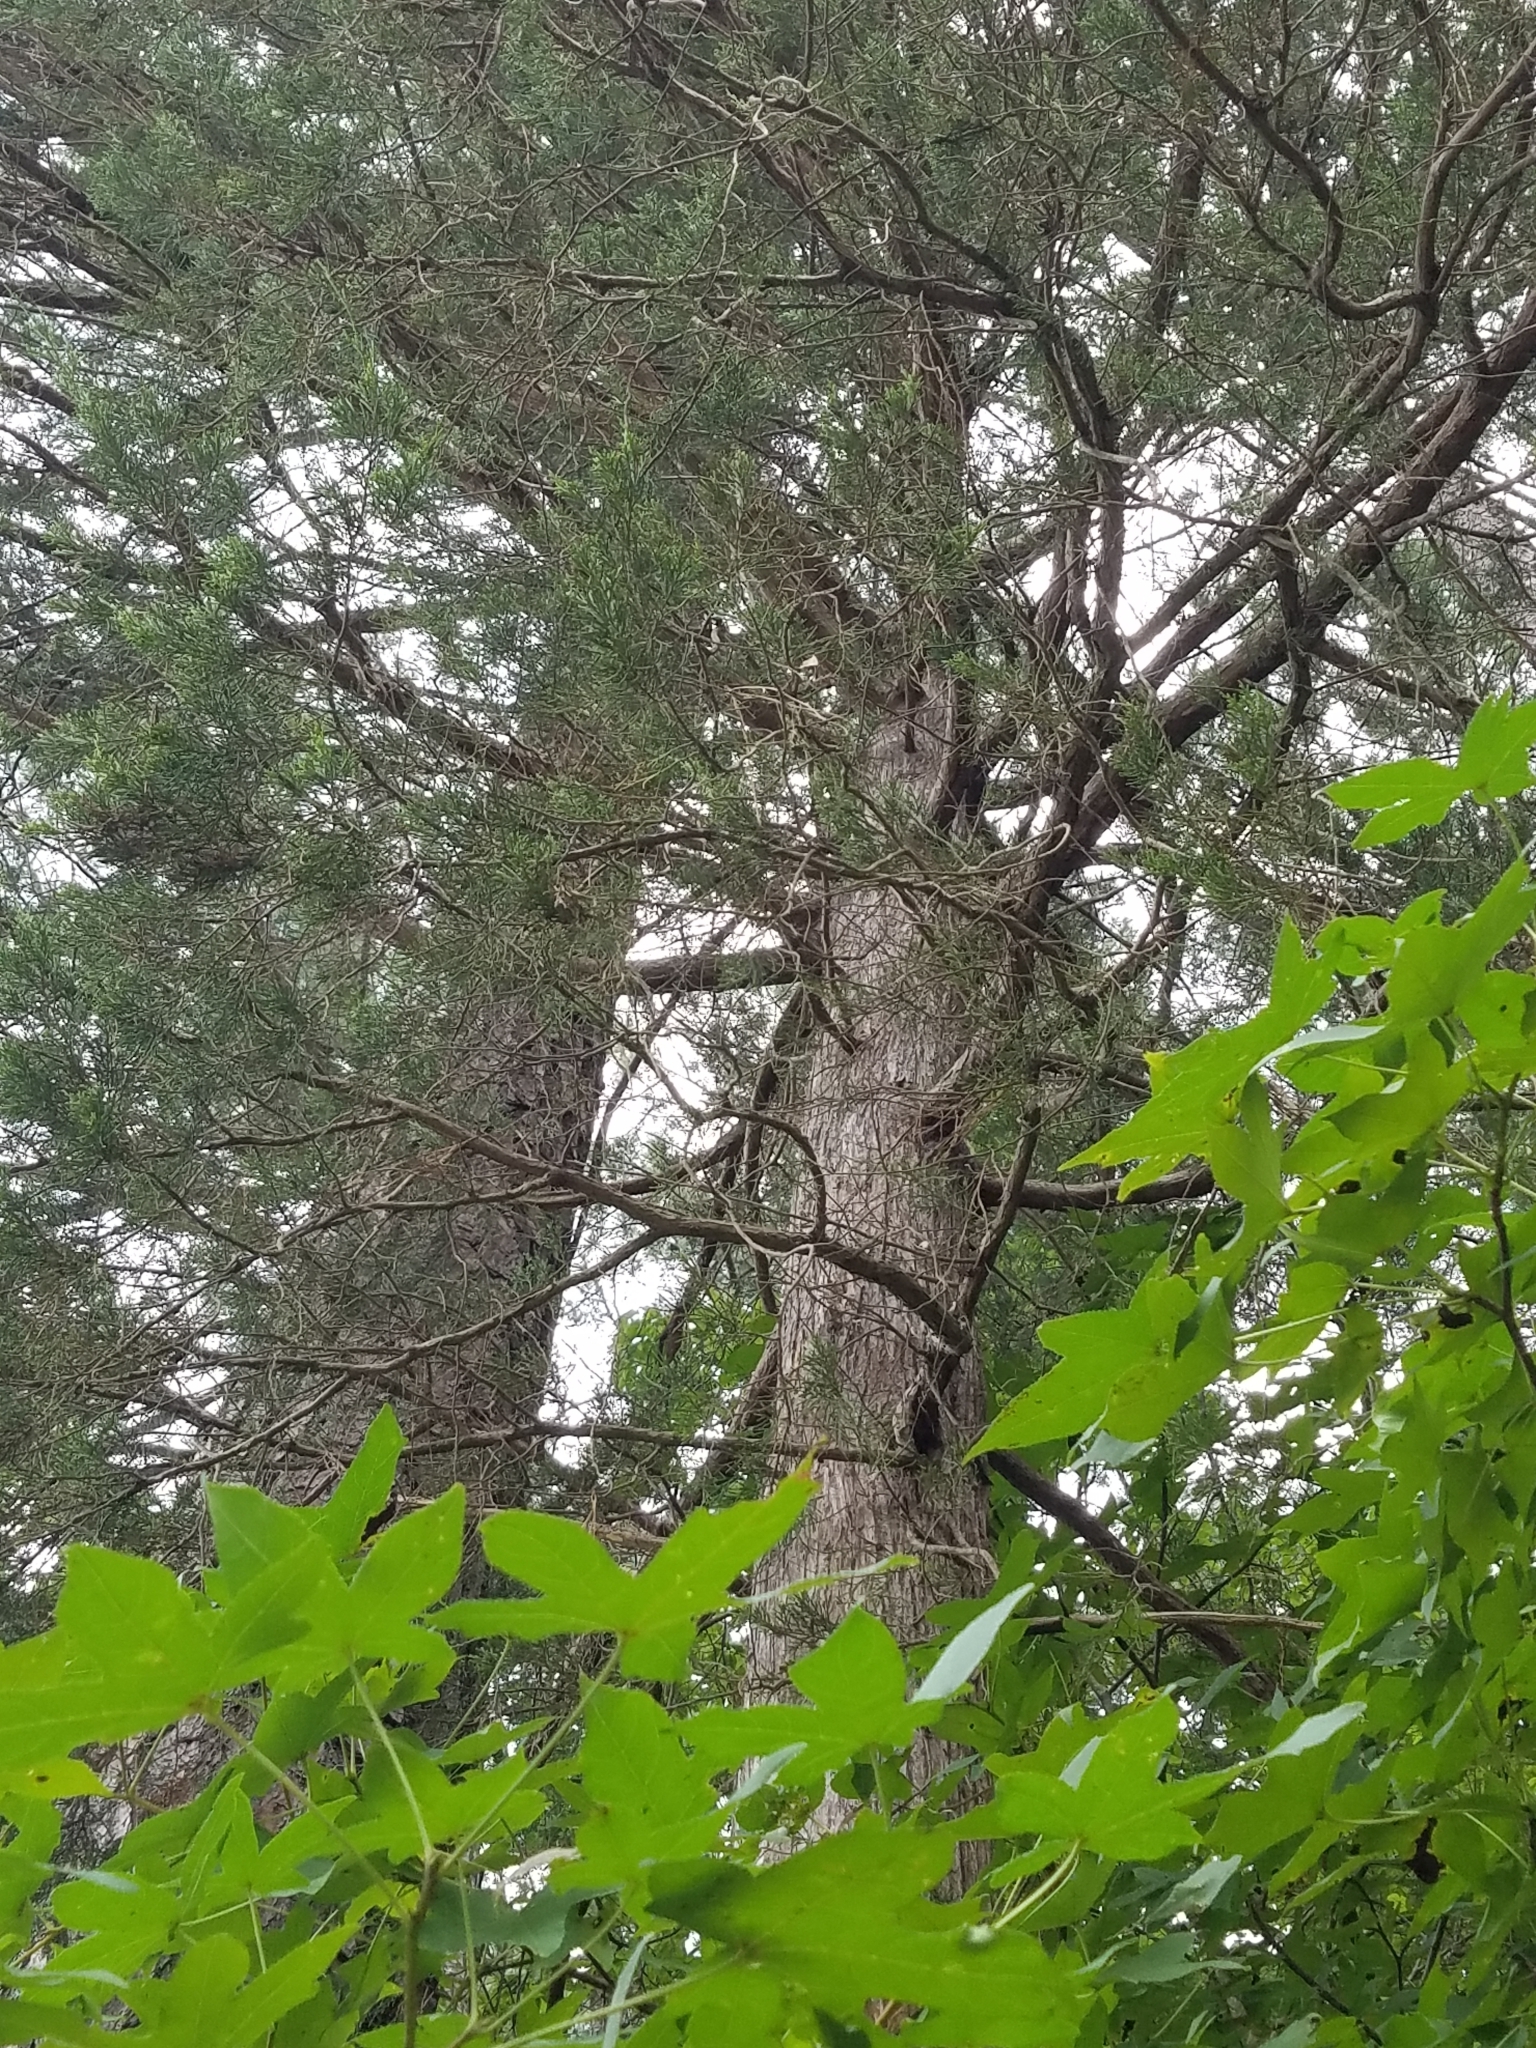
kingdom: Plantae
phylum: Tracheophyta
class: Pinopsida
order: Pinales
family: Cupressaceae
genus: Juniperus
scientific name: Juniperus virginiana
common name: Red juniper
